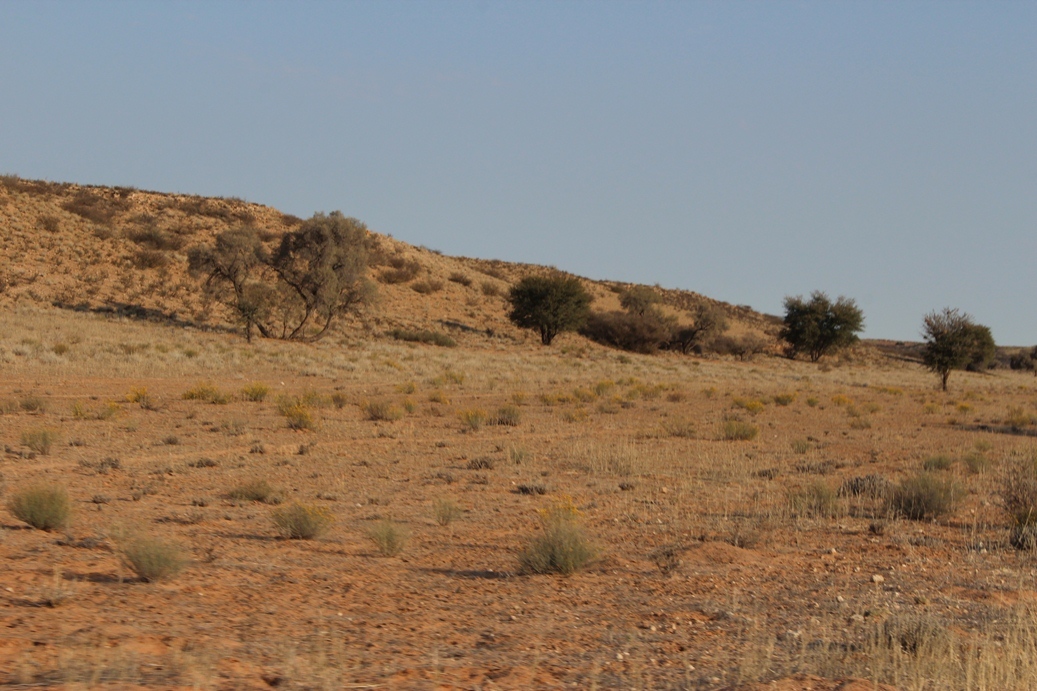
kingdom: Plantae
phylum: Tracheophyta
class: Magnoliopsida
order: Fabales
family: Fabaceae
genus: Vachellia
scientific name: Vachellia haematoxylon
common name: Grey camel thorn
